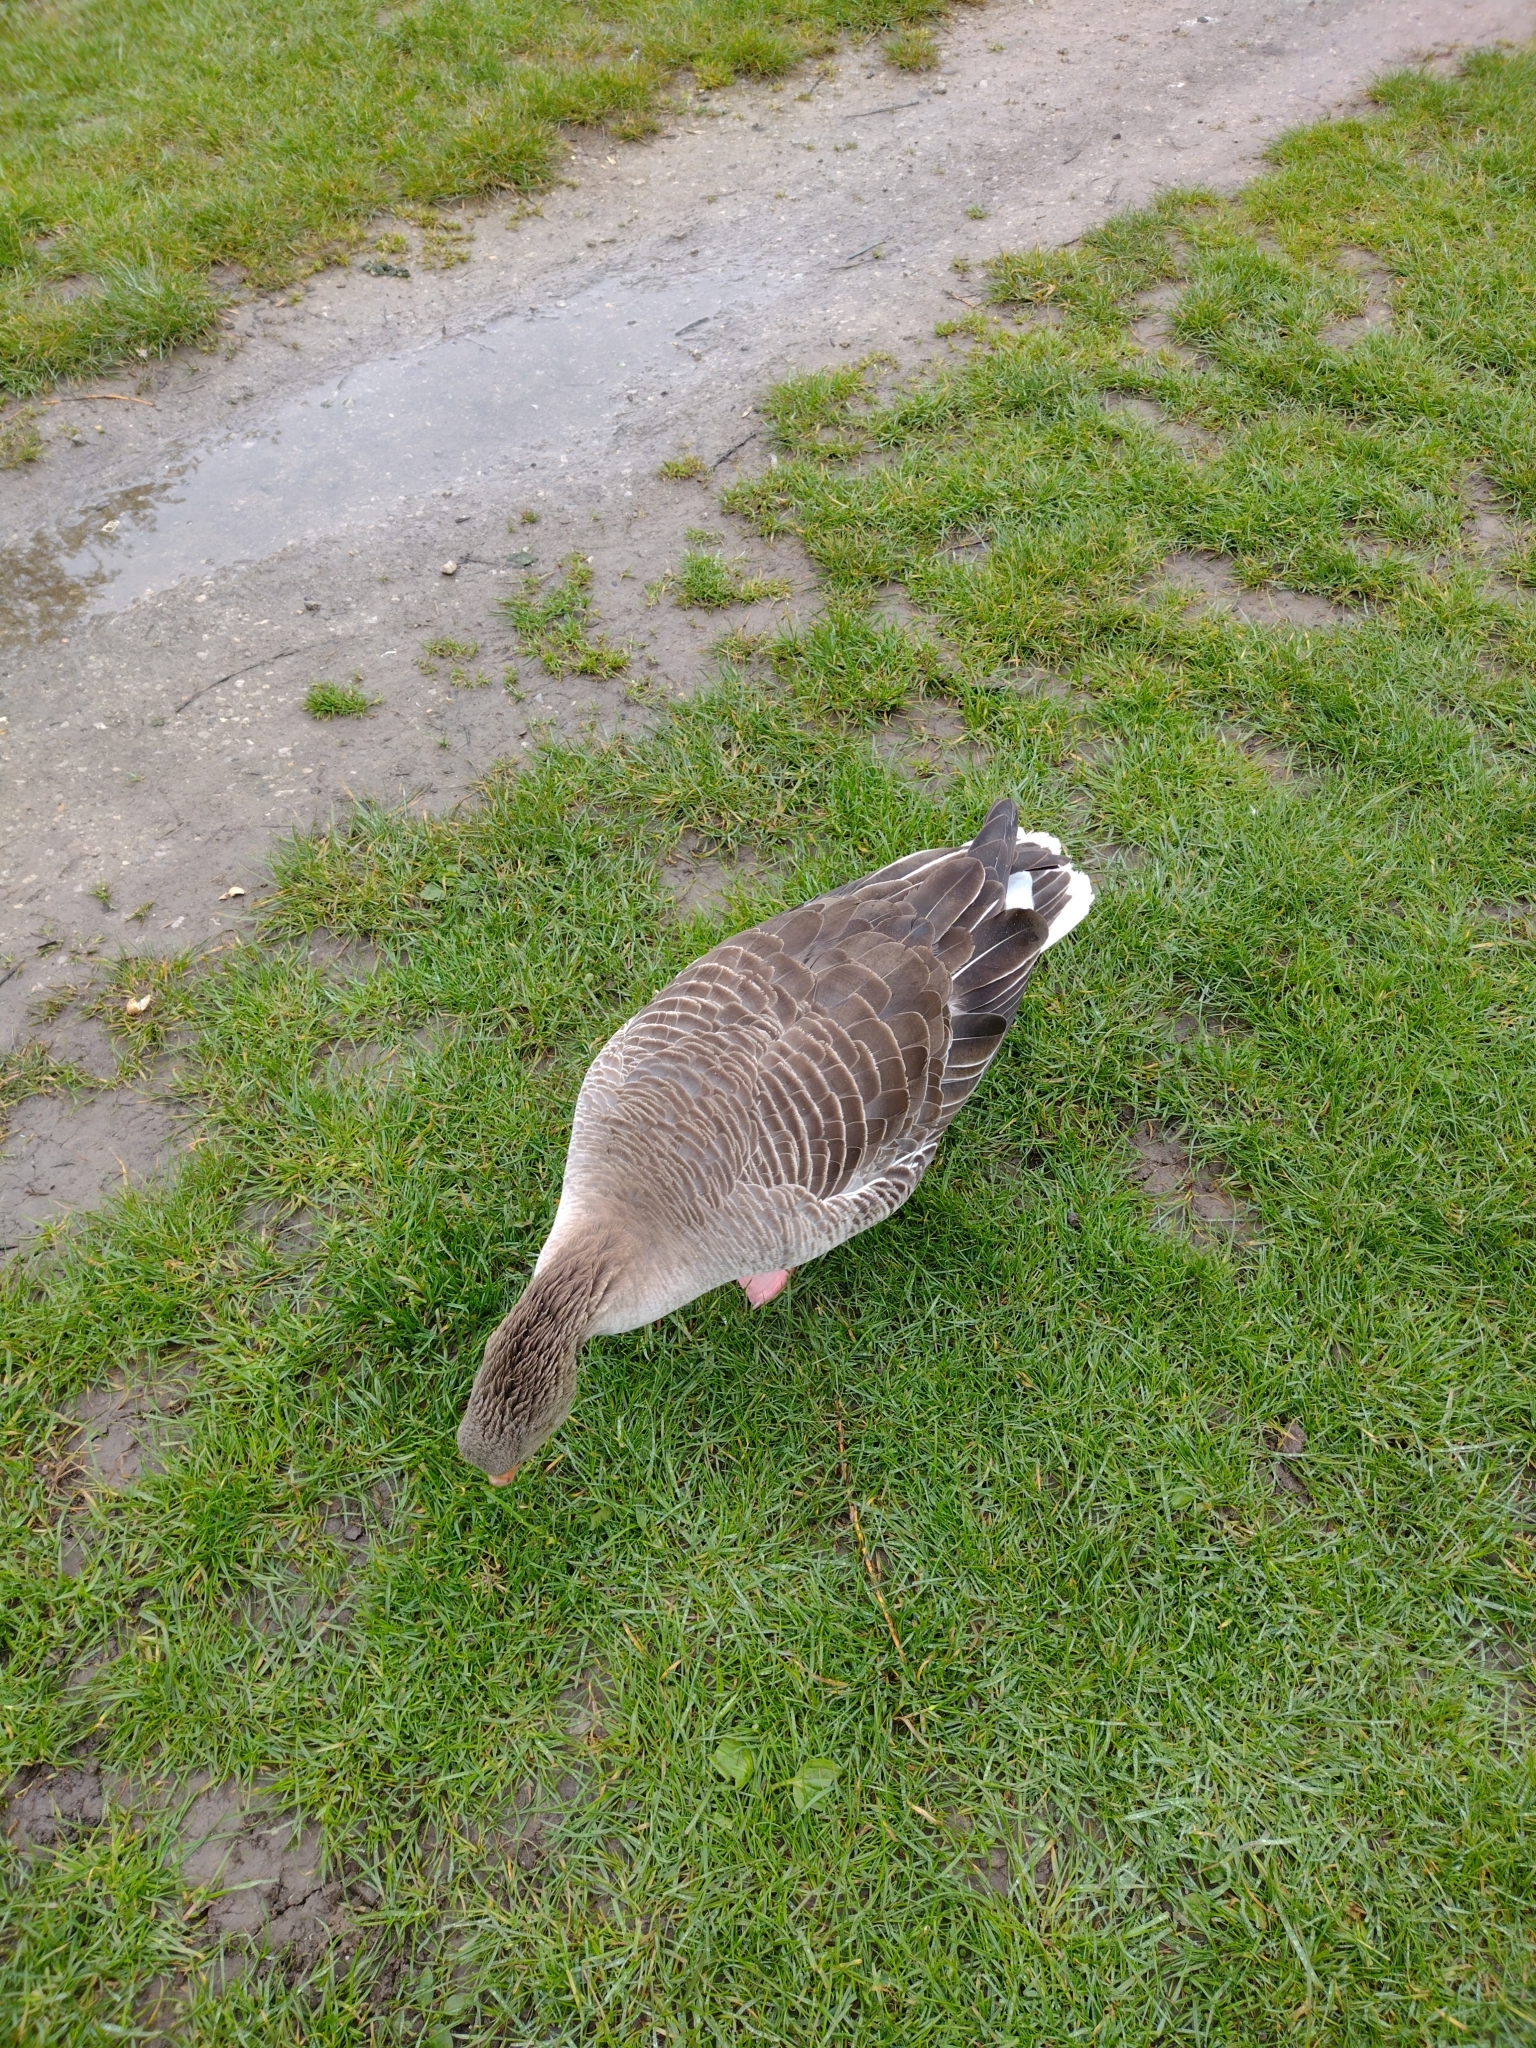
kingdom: Animalia
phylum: Chordata
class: Aves
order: Anseriformes
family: Anatidae
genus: Anser
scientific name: Anser anser
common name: Greylag goose
